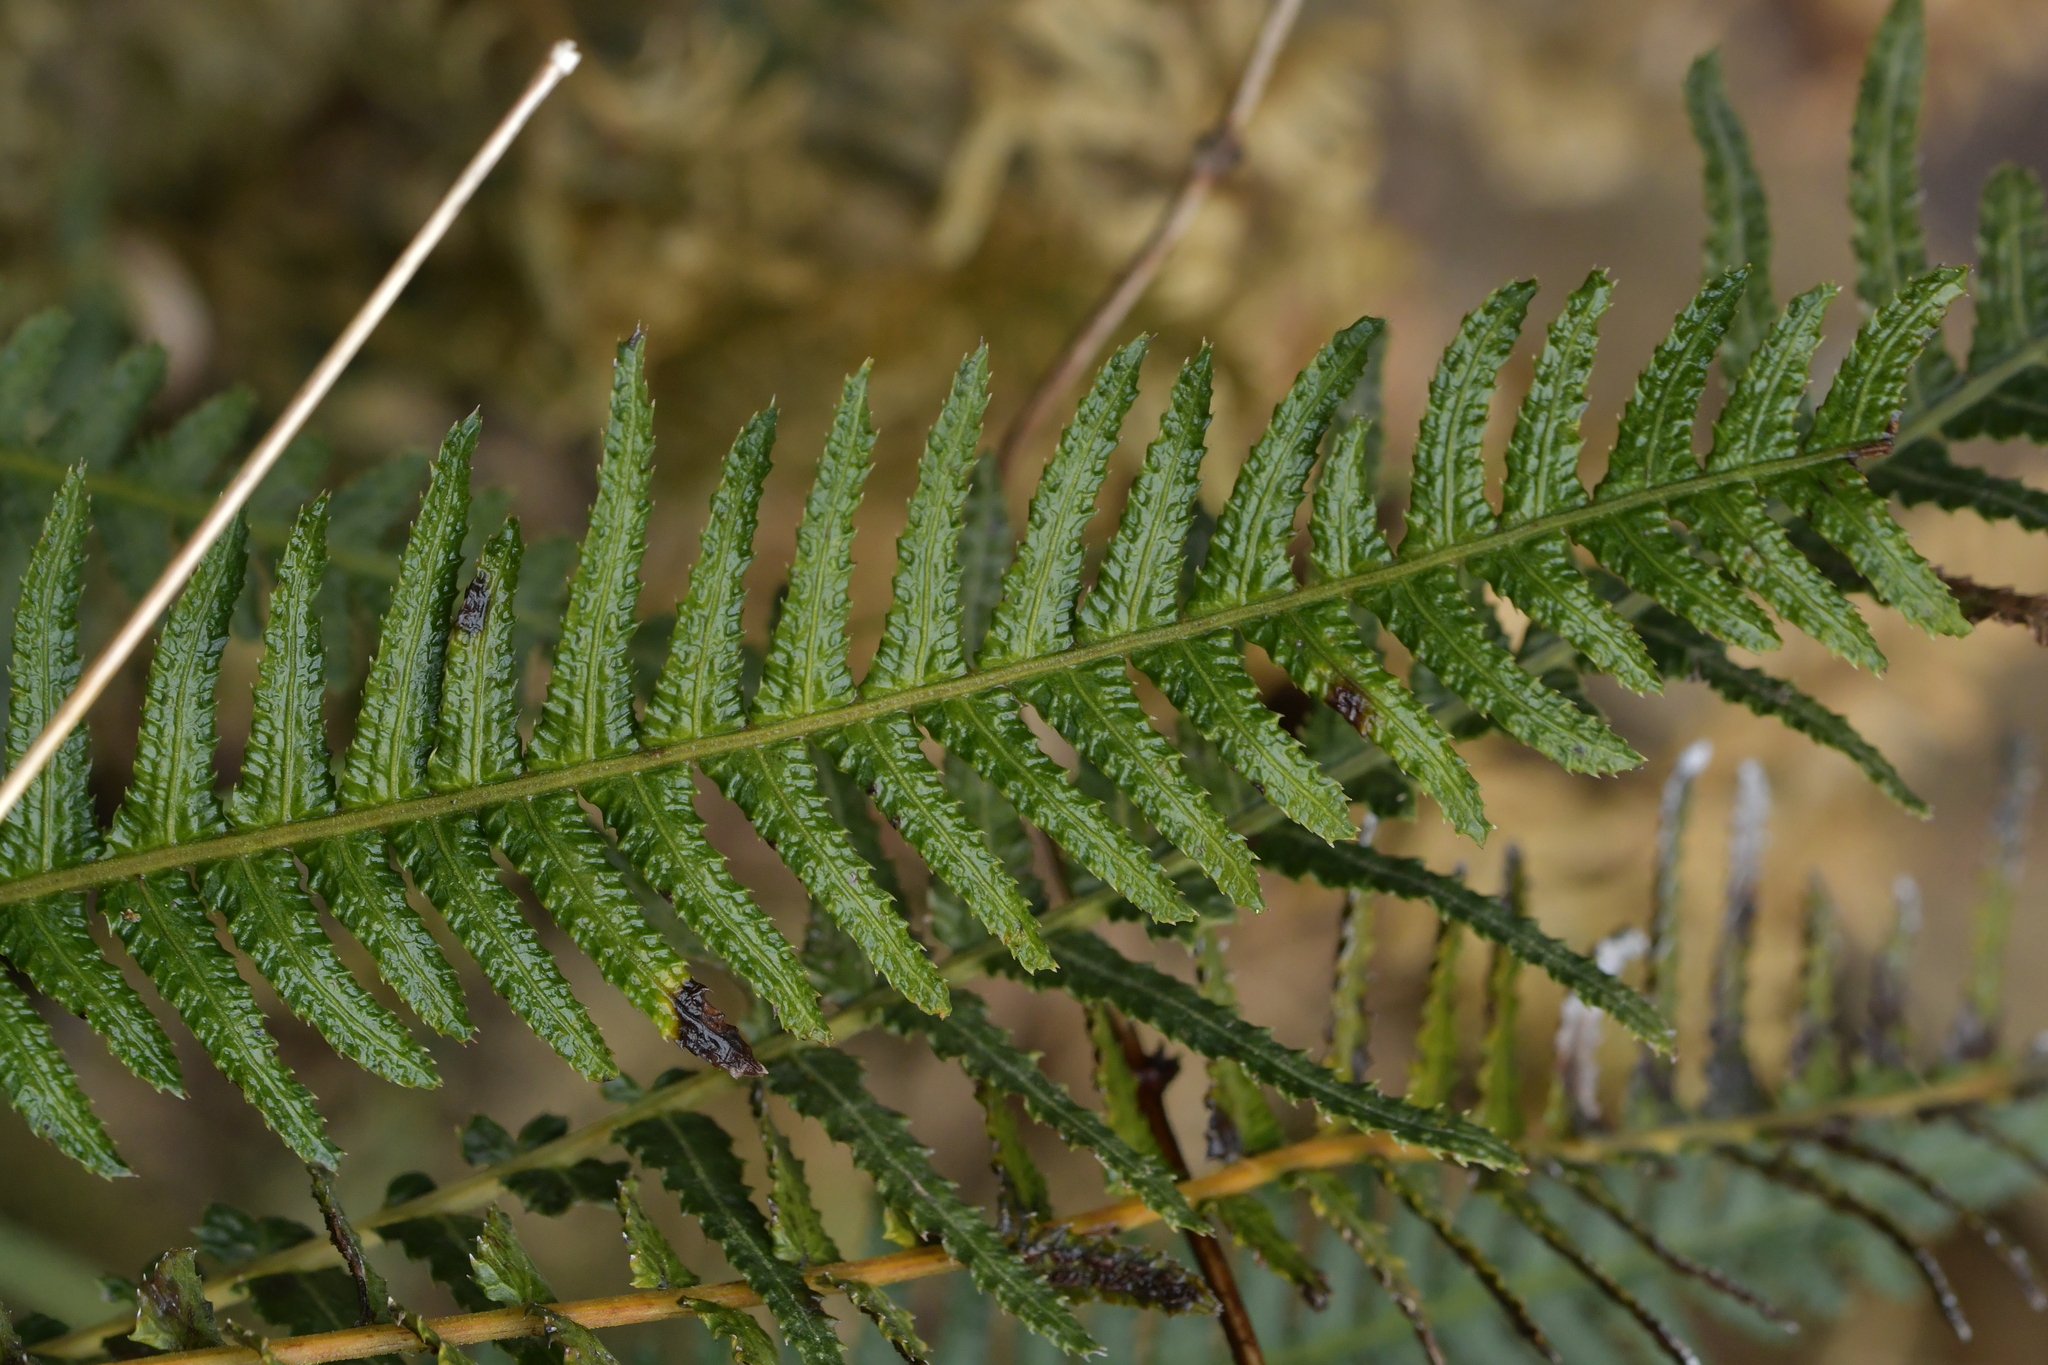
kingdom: Plantae
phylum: Tracheophyta
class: Polypodiopsida
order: Polypodiales
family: Blechnaceae
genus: Doodia
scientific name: Doodia australis
